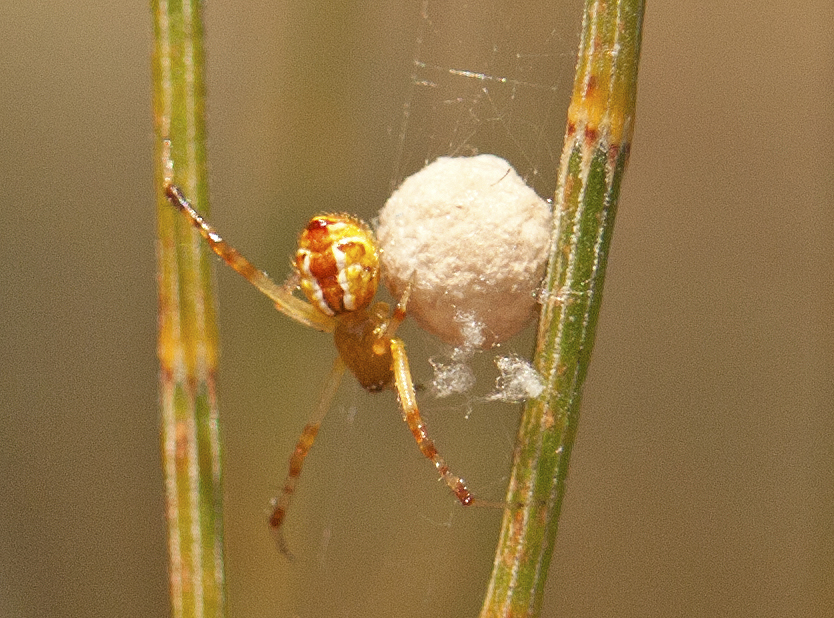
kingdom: Animalia
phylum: Arthropoda
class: Arachnida
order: Araneae
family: Theridiidae
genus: Theridion
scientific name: Theridion pyramidale
